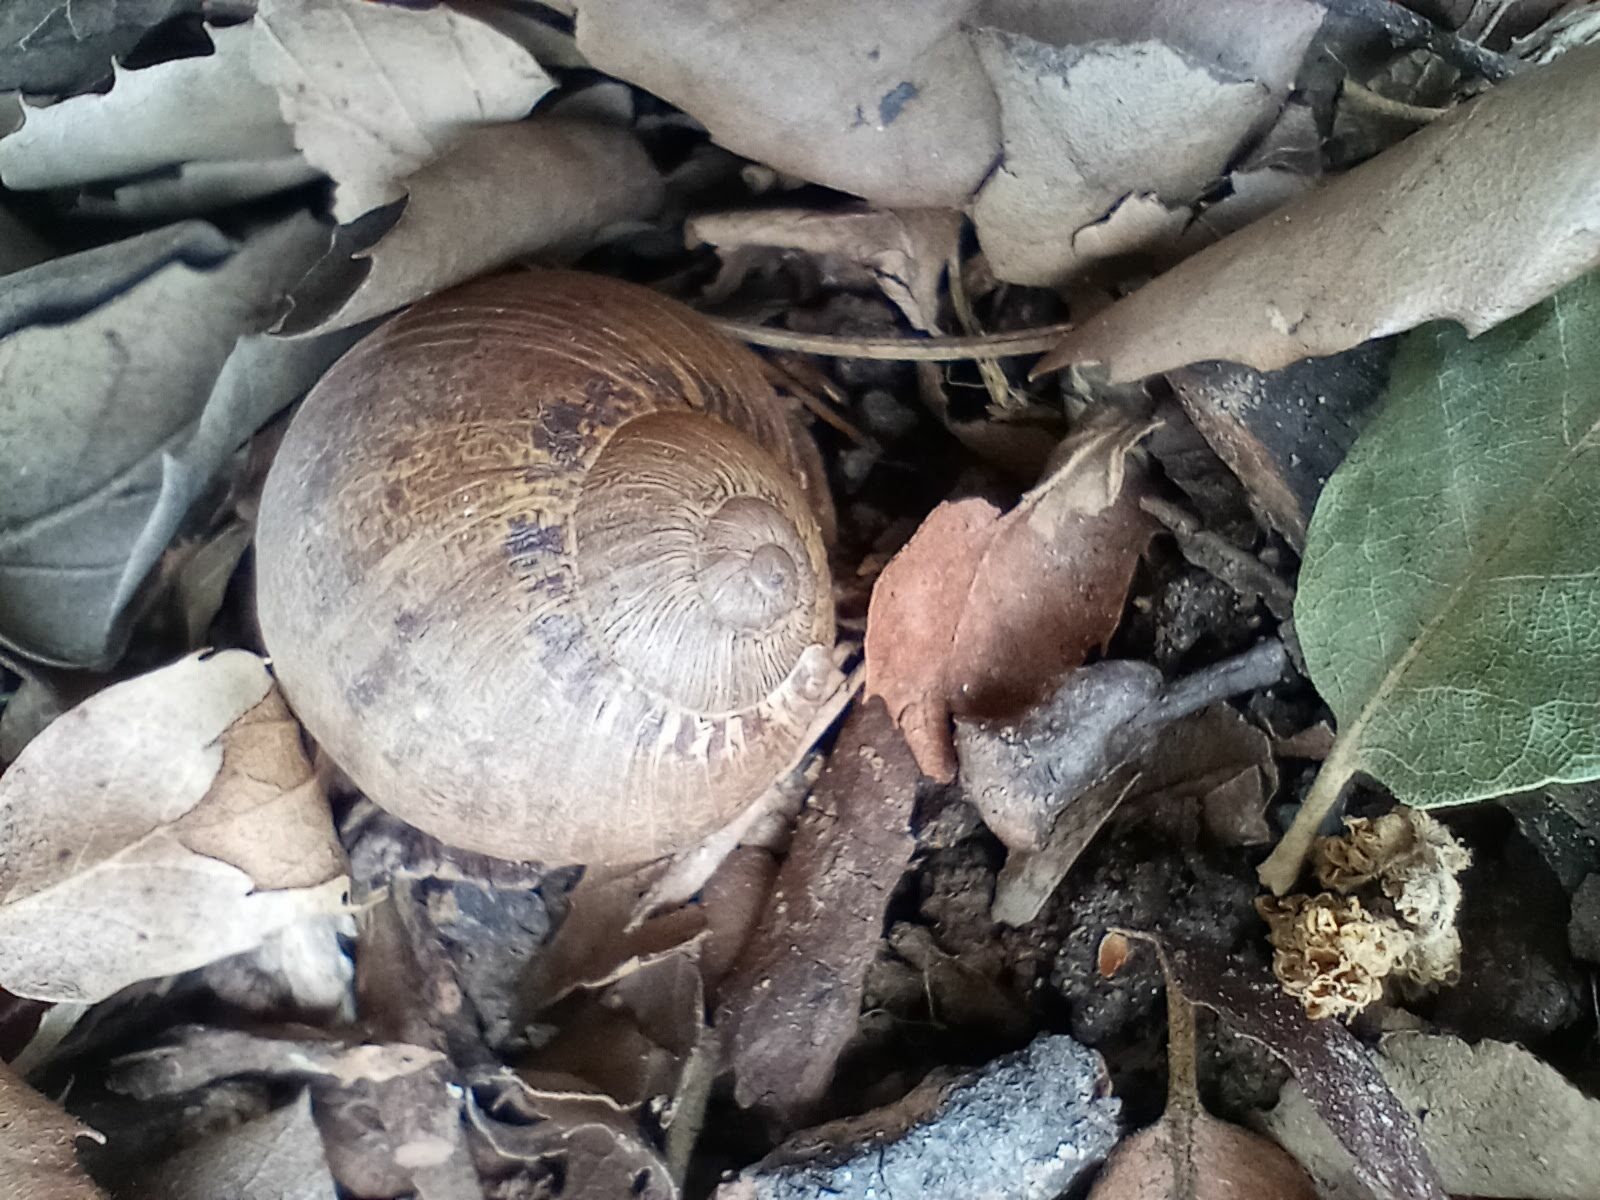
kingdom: Animalia
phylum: Mollusca
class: Gastropoda
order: Stylommatophora
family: Helicidae
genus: Cornu
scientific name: Cornu aspersum
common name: Brown garden snail
